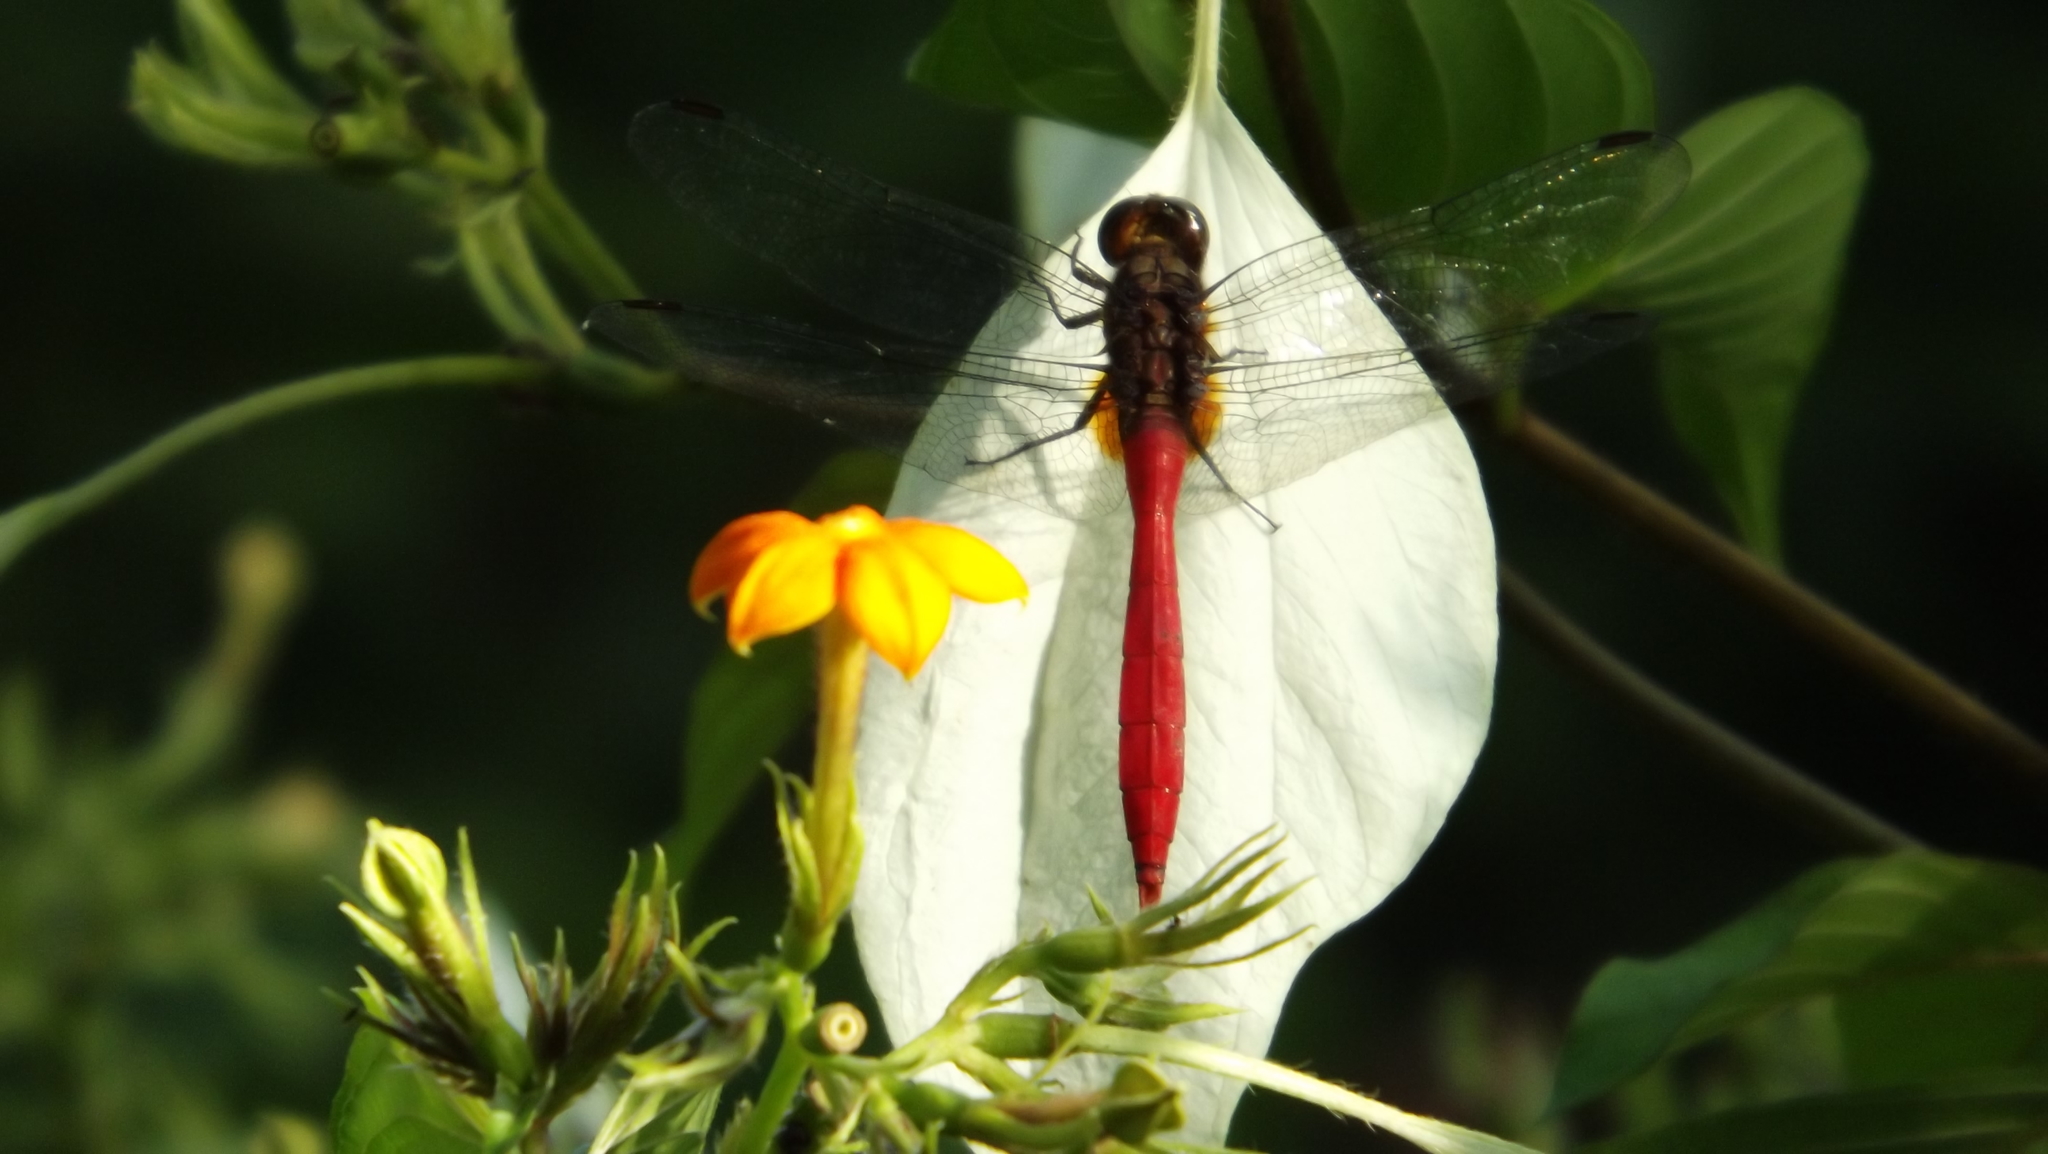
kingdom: Animalia
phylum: Arthropoda
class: Insecta
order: Odonata
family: Libellulidae
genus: Orthetrum
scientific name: Orthetrum villosovittatum
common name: Firery skimmer
